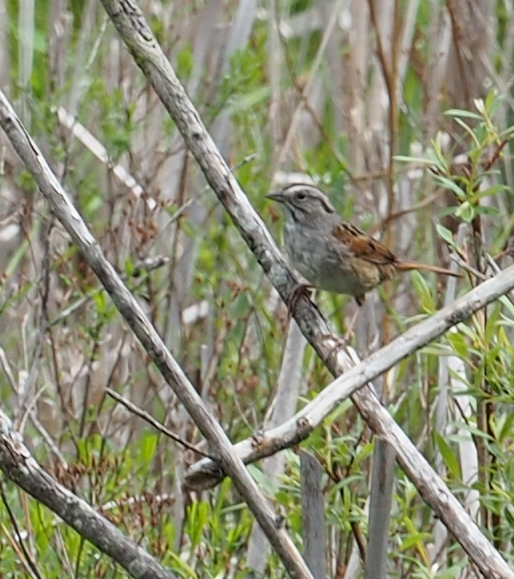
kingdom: Animalia
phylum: Chordata
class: Aves
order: Passeriformes
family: Passerellidae
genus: Melospiza
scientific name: Melospiza georgiana
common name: Swamp sparrow
